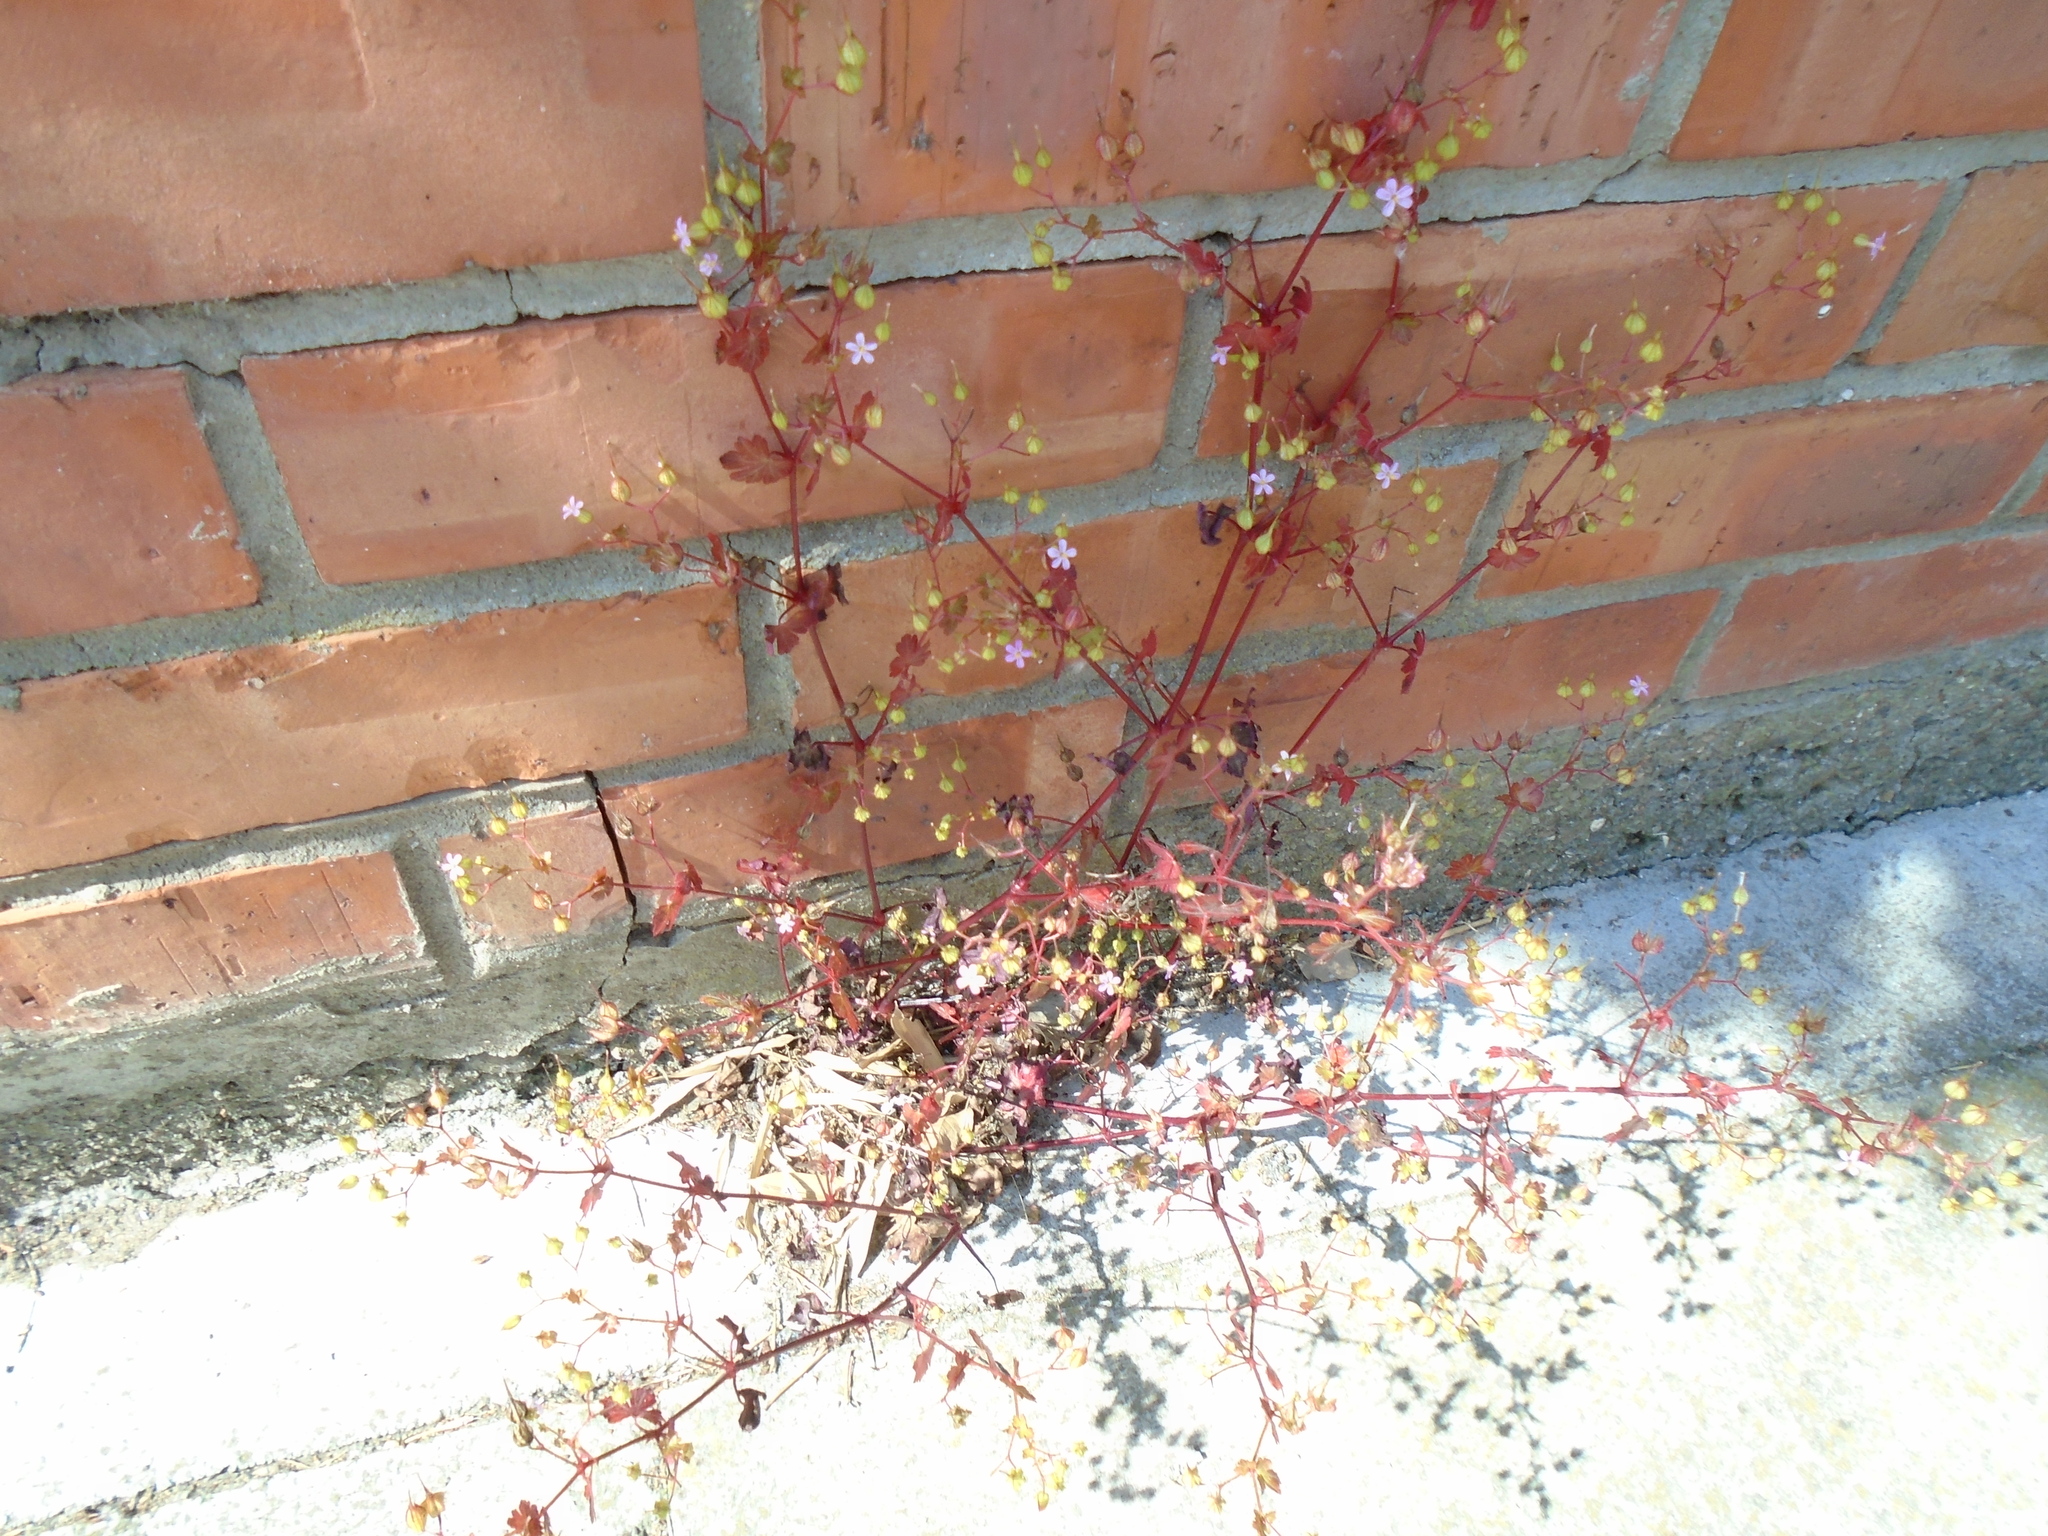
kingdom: Plantae
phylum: Tracheophyta
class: Magnoliopsida
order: Geraniales
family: Geraniaceae
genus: Geranium
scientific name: Geranium lucidum
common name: Shining crane's-bill
